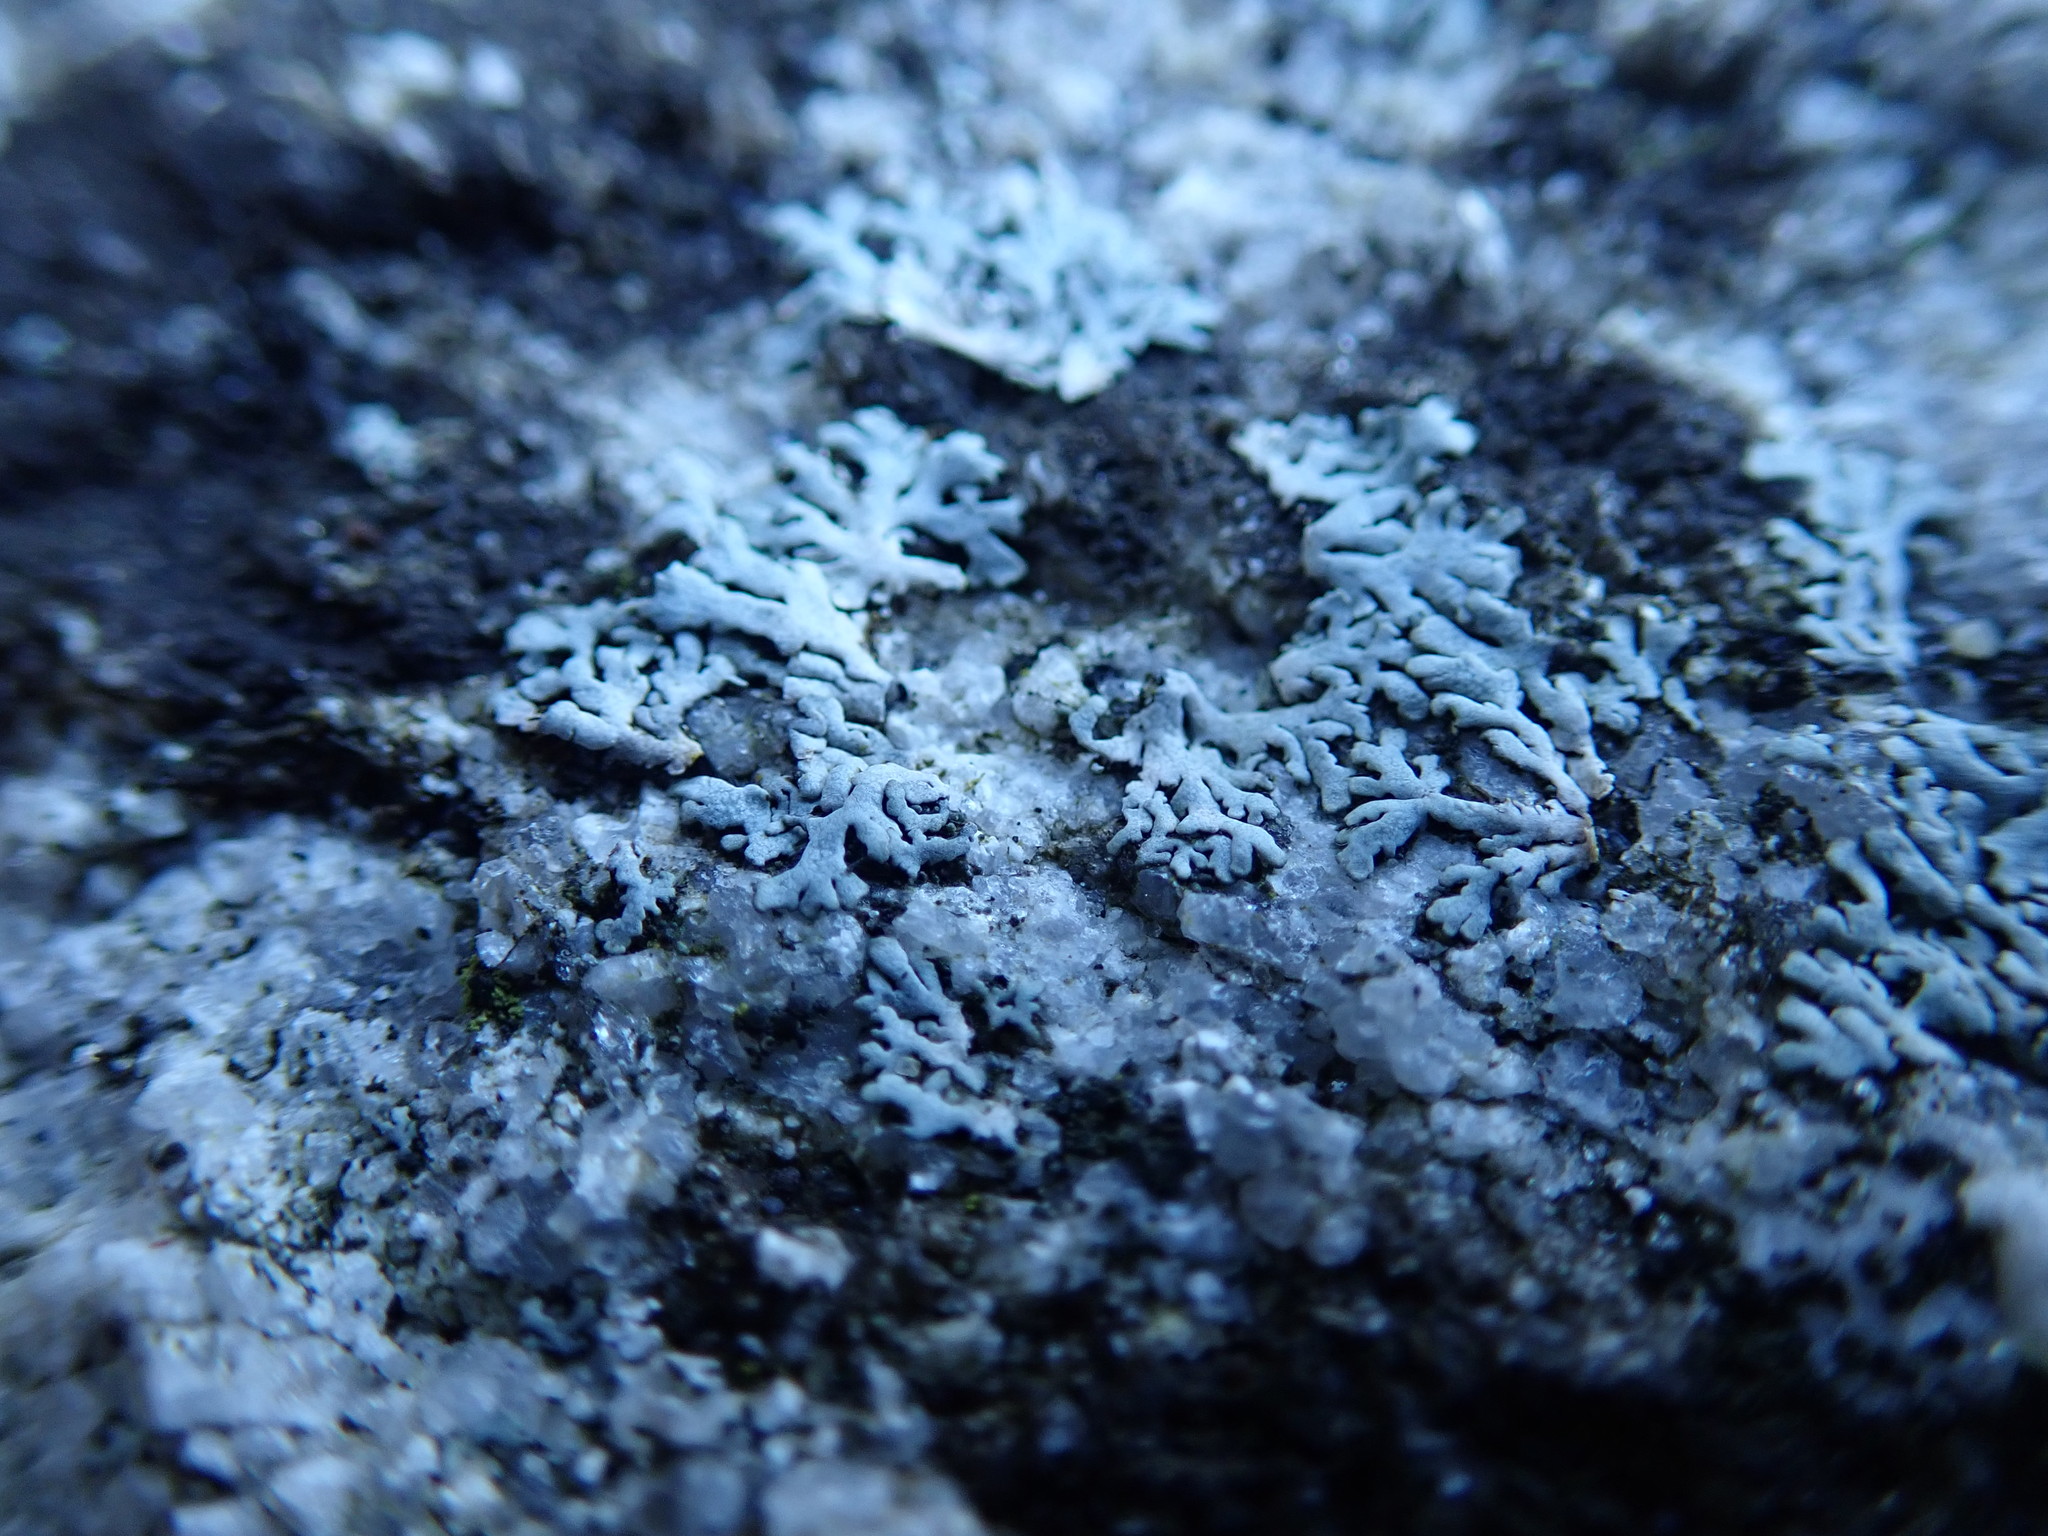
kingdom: Fungi
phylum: Ascomycota
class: Lecanoromycetes
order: Caliciales
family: Physciaceae
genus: Physcia
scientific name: Physcia caesia
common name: Blue-gray rosette lichen
